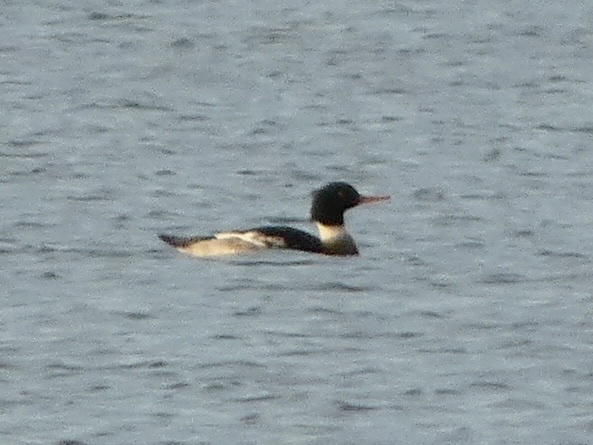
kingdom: Animalia
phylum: Chordata
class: Aves
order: Anseriformes
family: Anatidae
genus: Mergus
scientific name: Mergus serrator
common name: Red-breasted merganser
